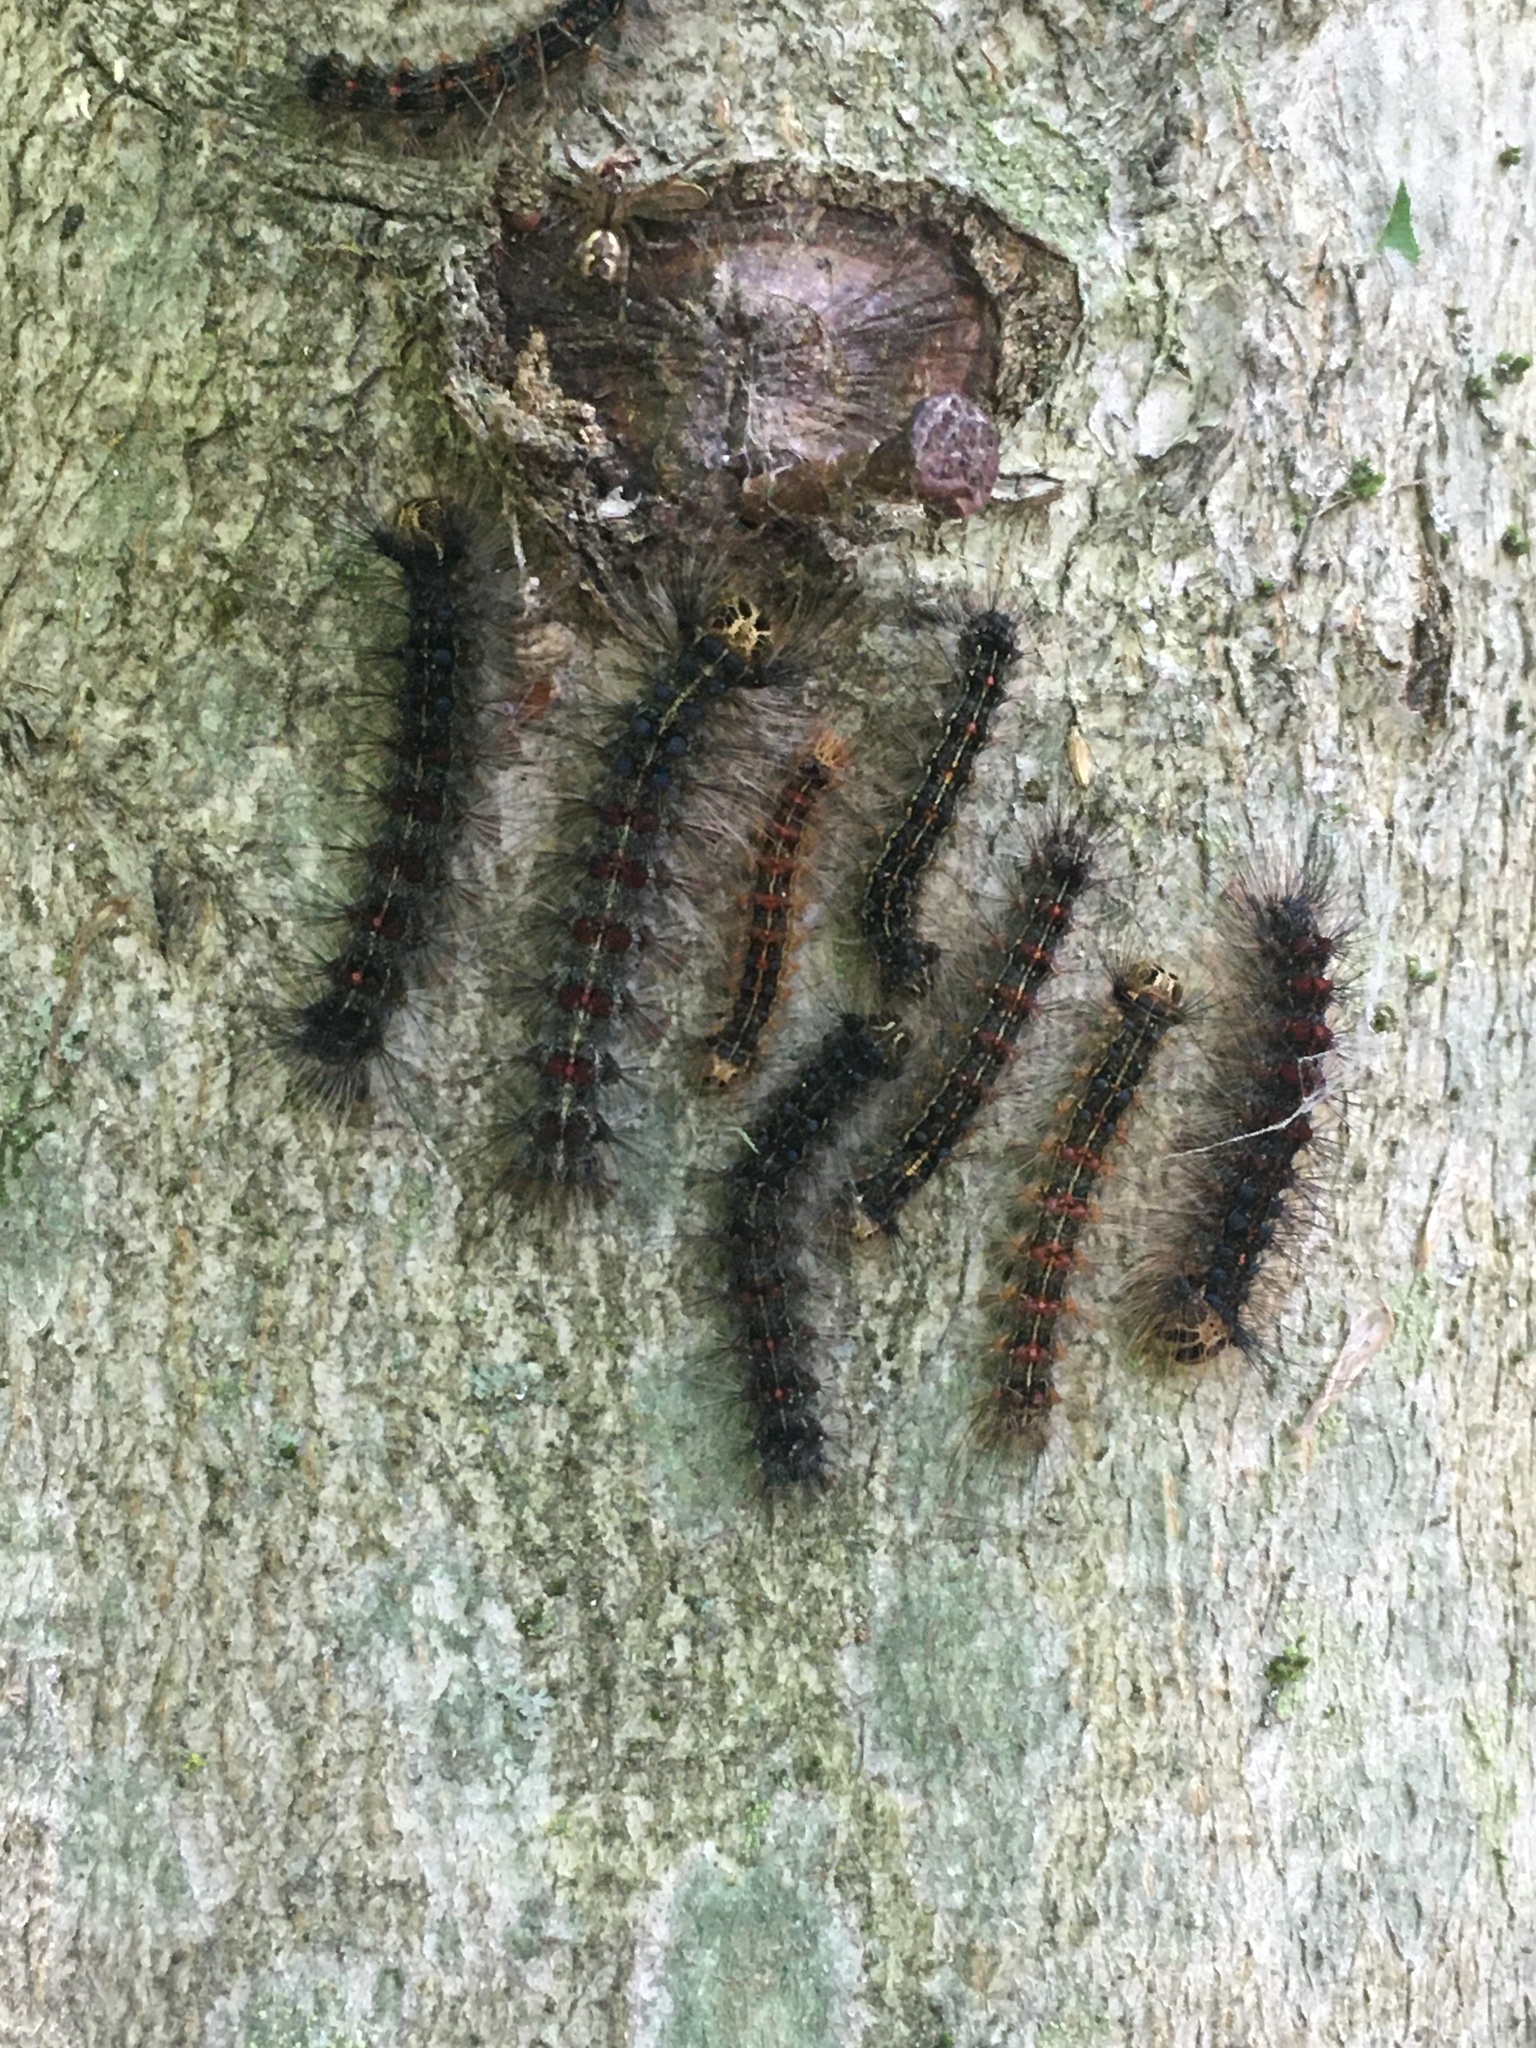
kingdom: Animalia
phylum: Arthropoda
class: Insecta
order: Lepidoptera
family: Erebidae
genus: Lymantria
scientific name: Lymantria dispar
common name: Gypsy moth
